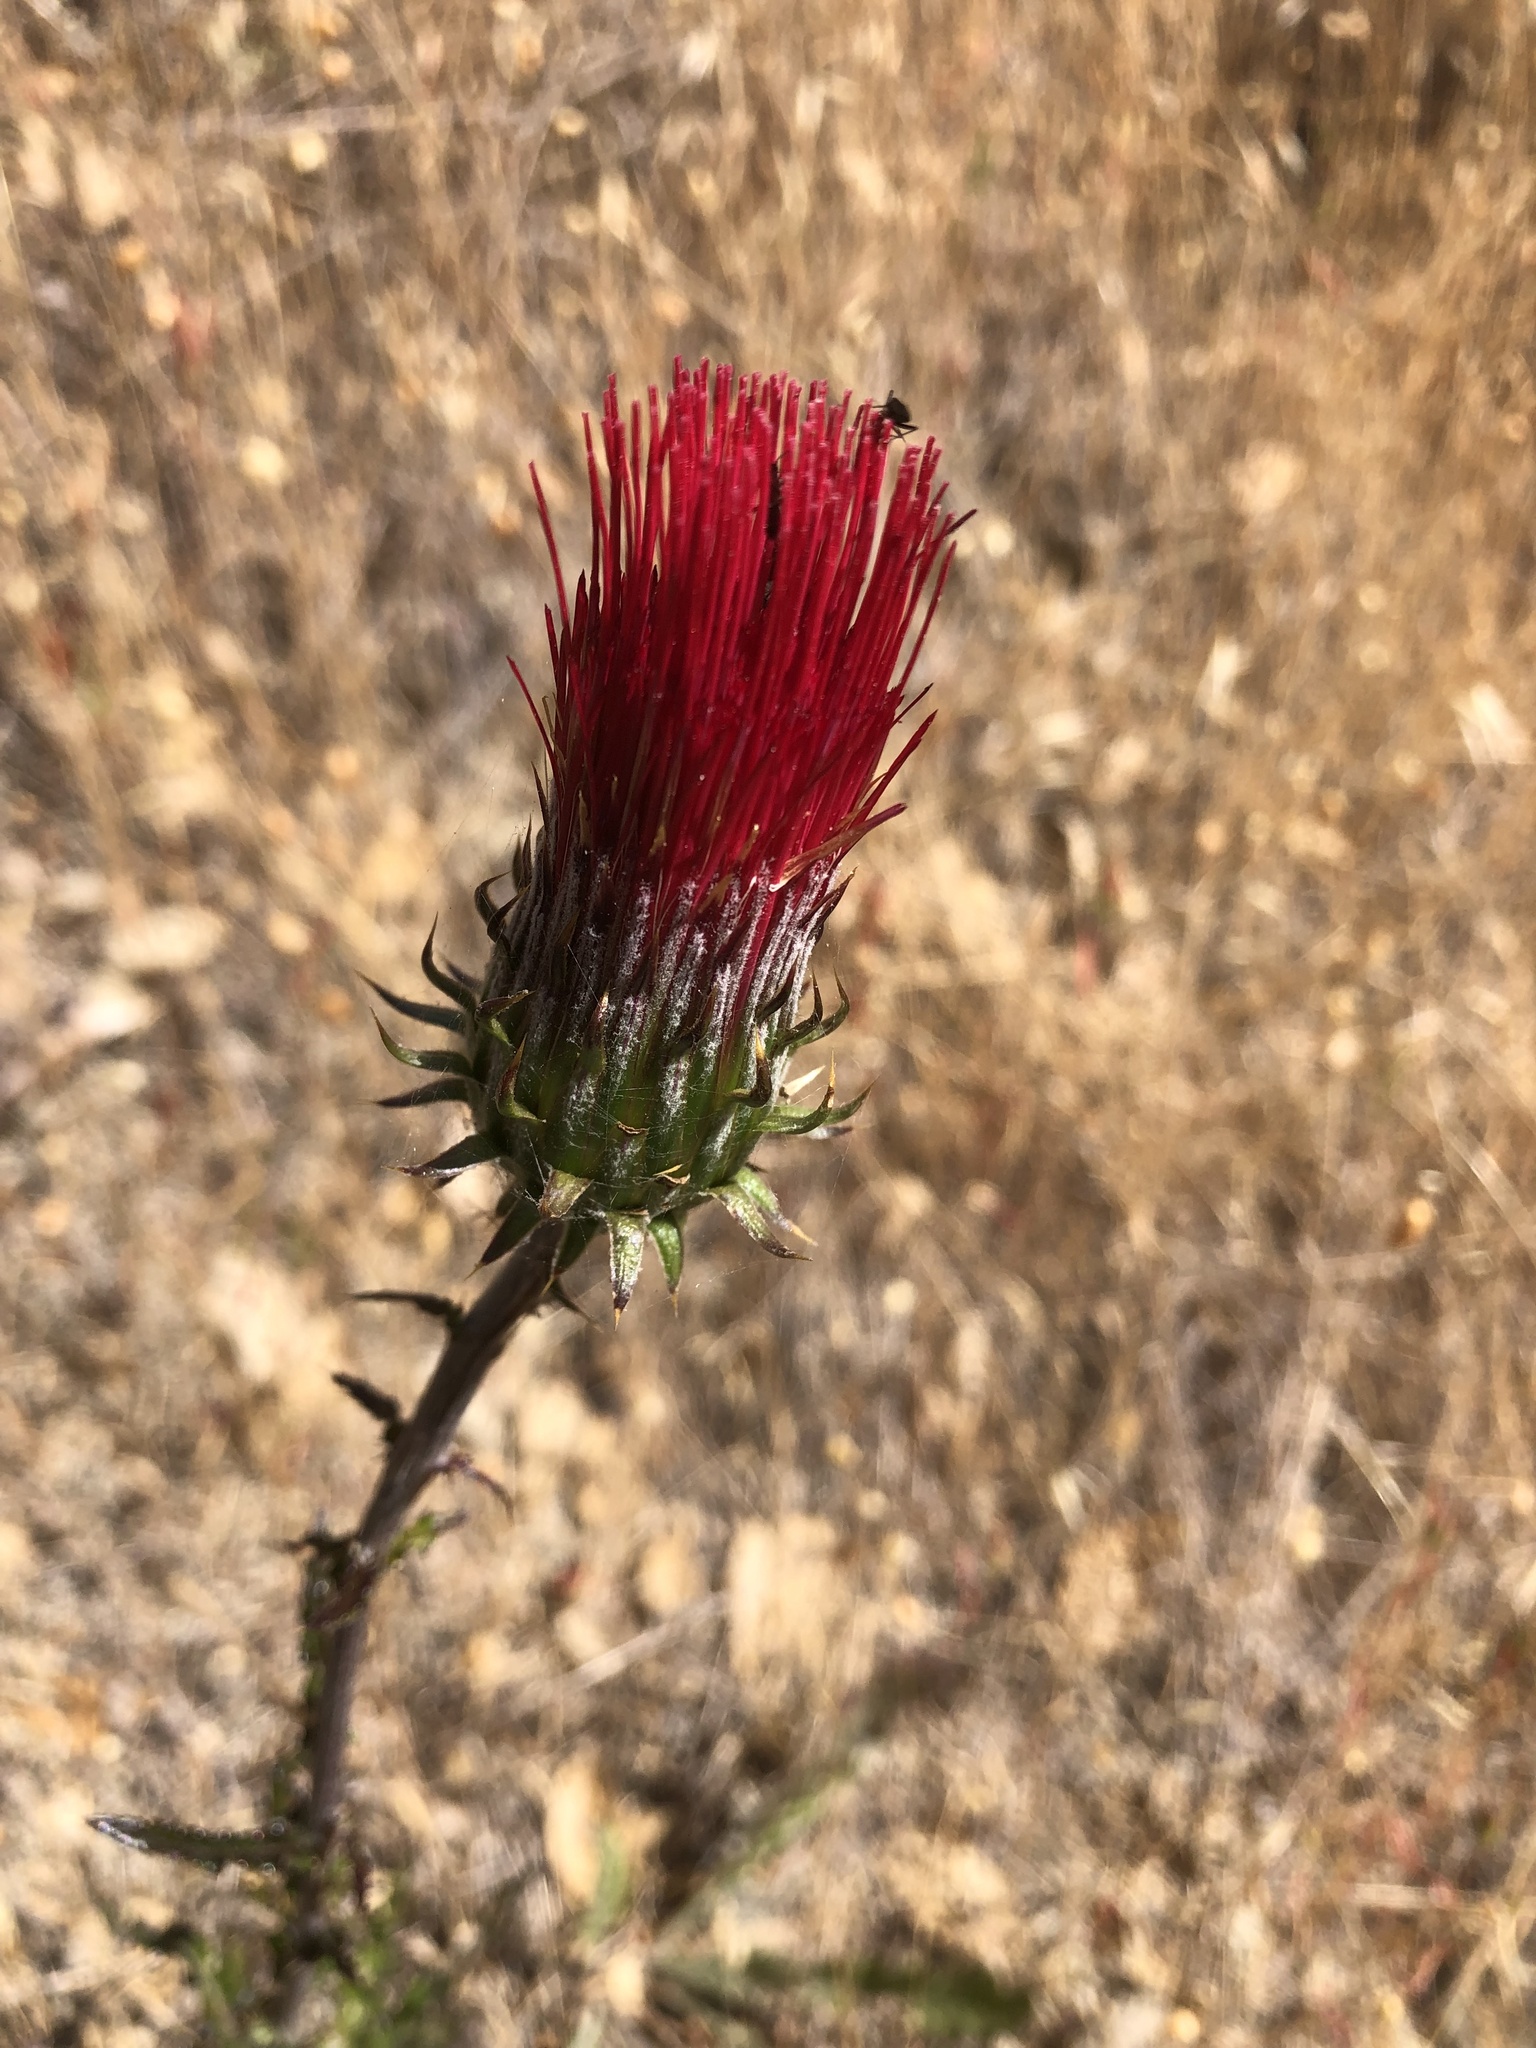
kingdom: Plantae
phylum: Tracheophyta
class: Magnoliopsida
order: Asterales
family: Asteraceae
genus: Cirsium
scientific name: Cirsium occidentale
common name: Western thistle
